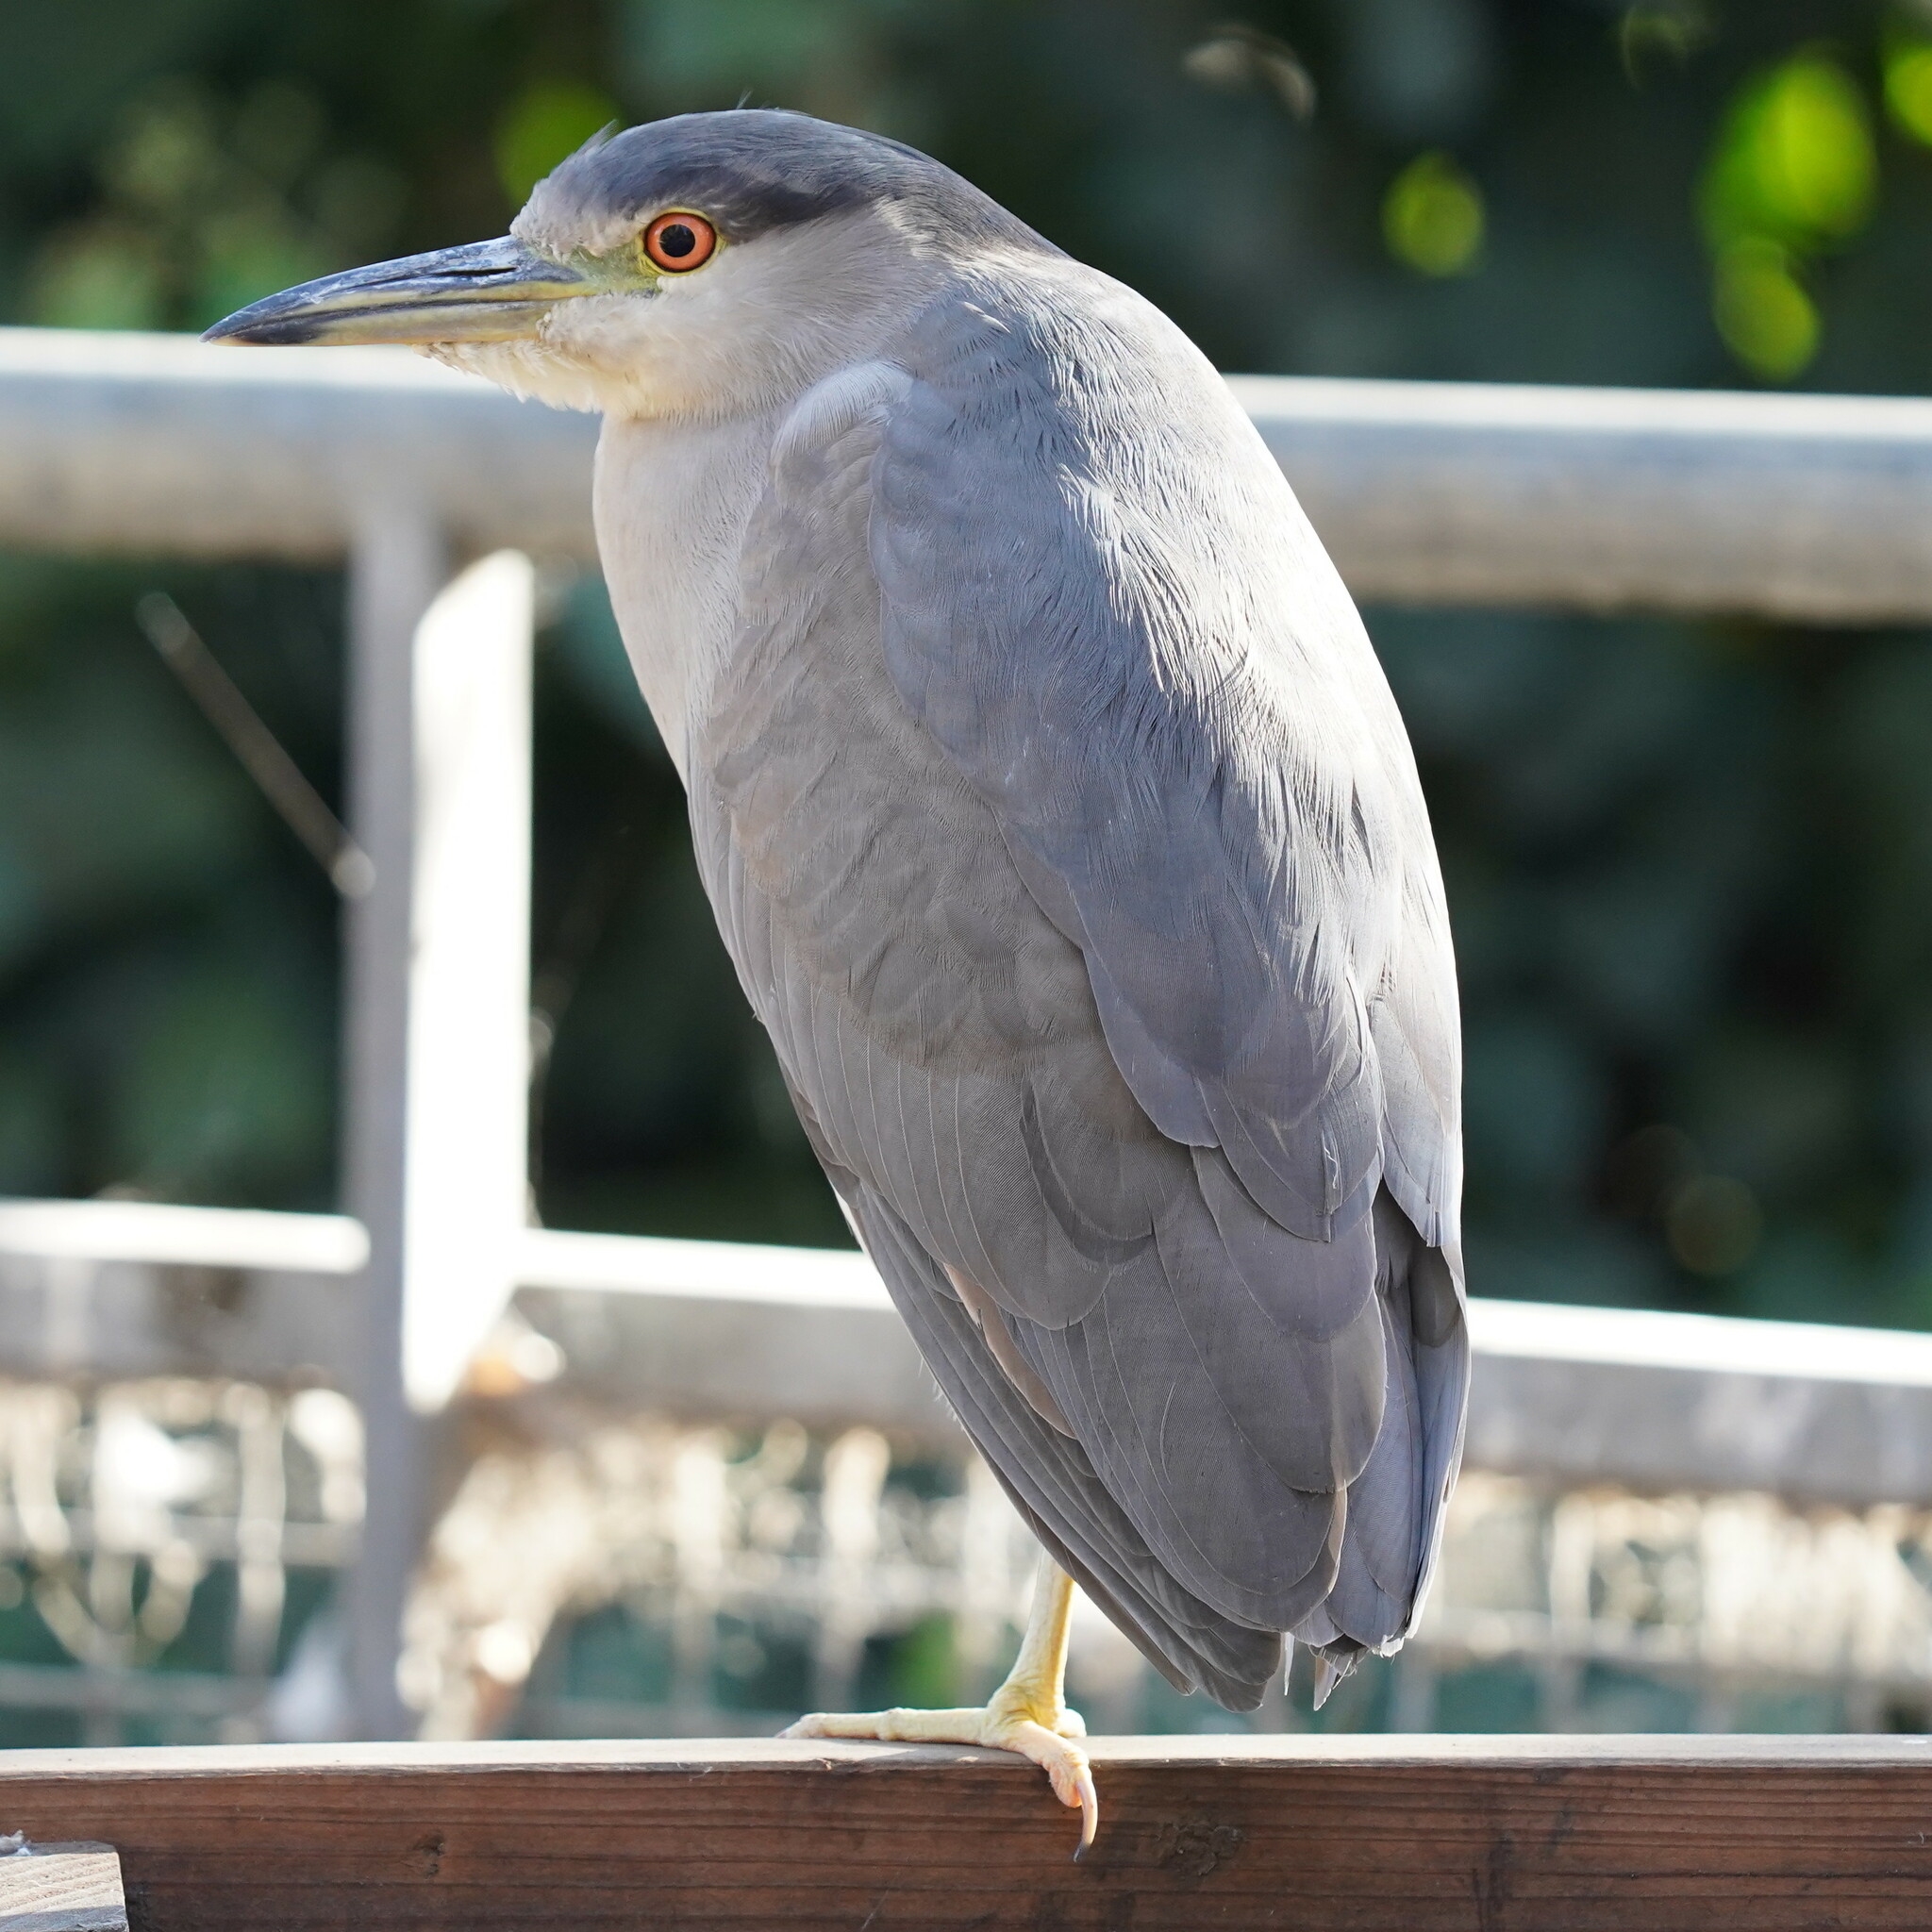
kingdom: Animalia
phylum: Chordata
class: Aves
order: Pelecaniformes
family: Ardeidae
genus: Nycticorax
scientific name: Nycticorax nycticorax
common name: Black-crowned night heron
